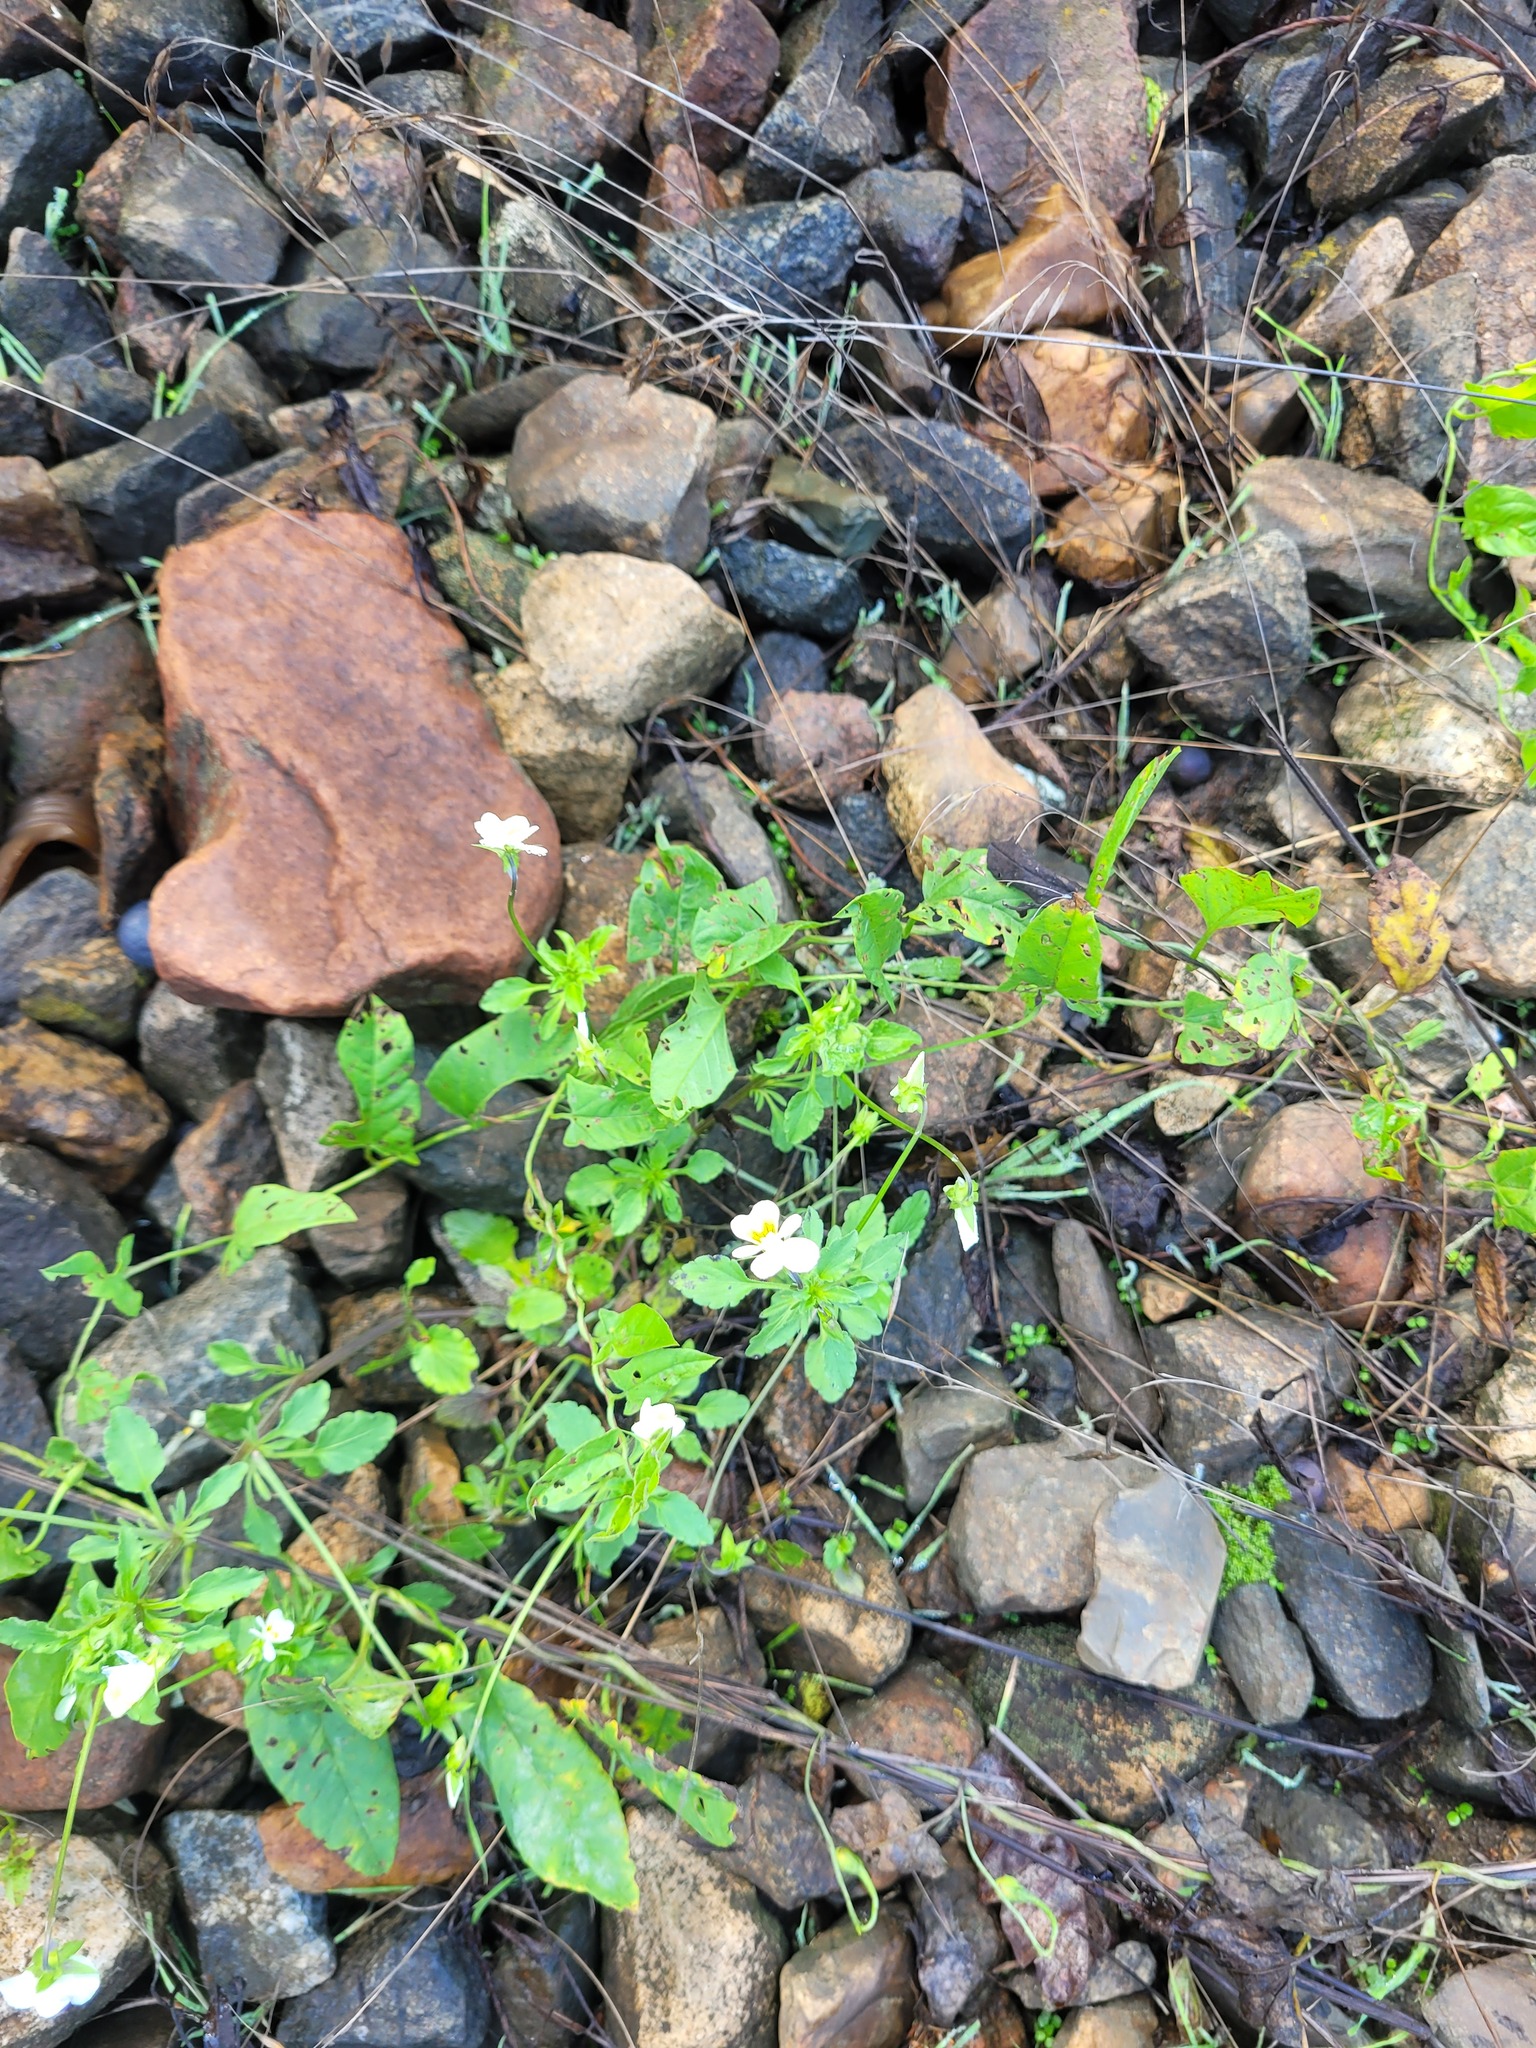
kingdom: Plantae
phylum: Tracheophyta
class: Magnoliopsida
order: Malpighiales
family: Violaceae
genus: Viola
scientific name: Viola arvensis
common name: Field pansy
